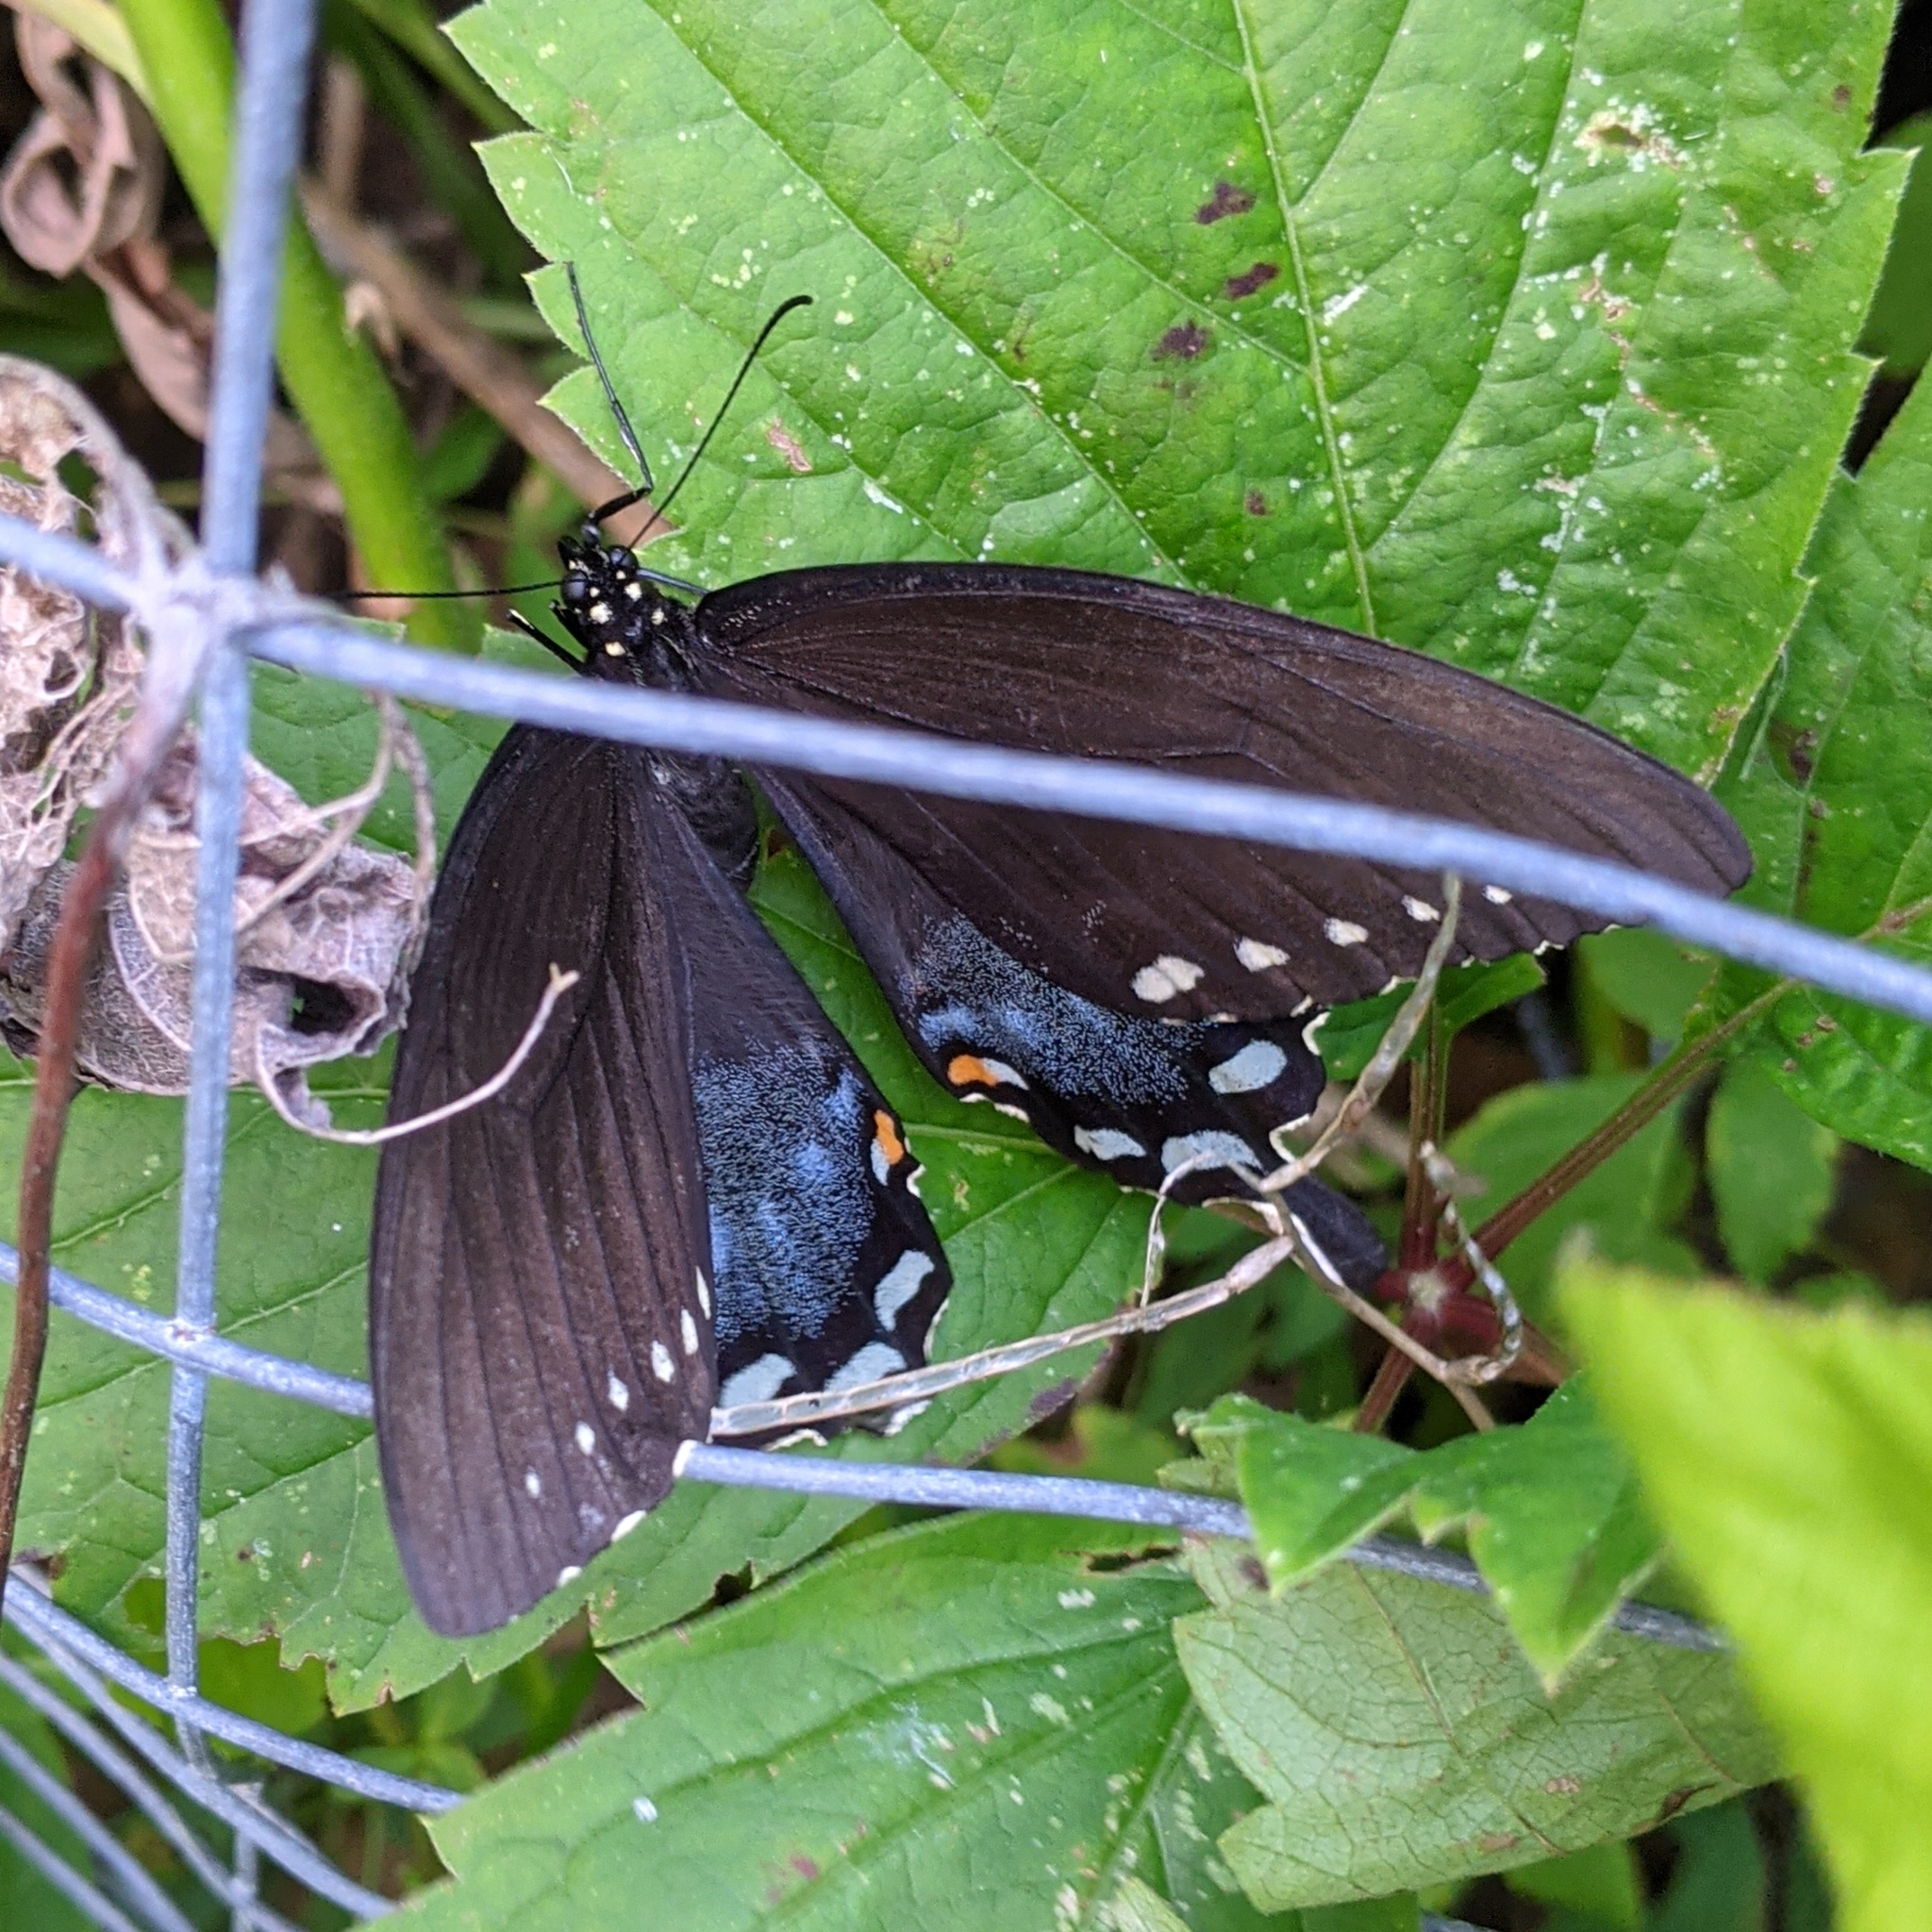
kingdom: Animalia
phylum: Arthropoda
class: Insecta
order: Lepidoptera
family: Papilionidae
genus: Papilio
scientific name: Papilio troilus
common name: Spicebush swallowtail
